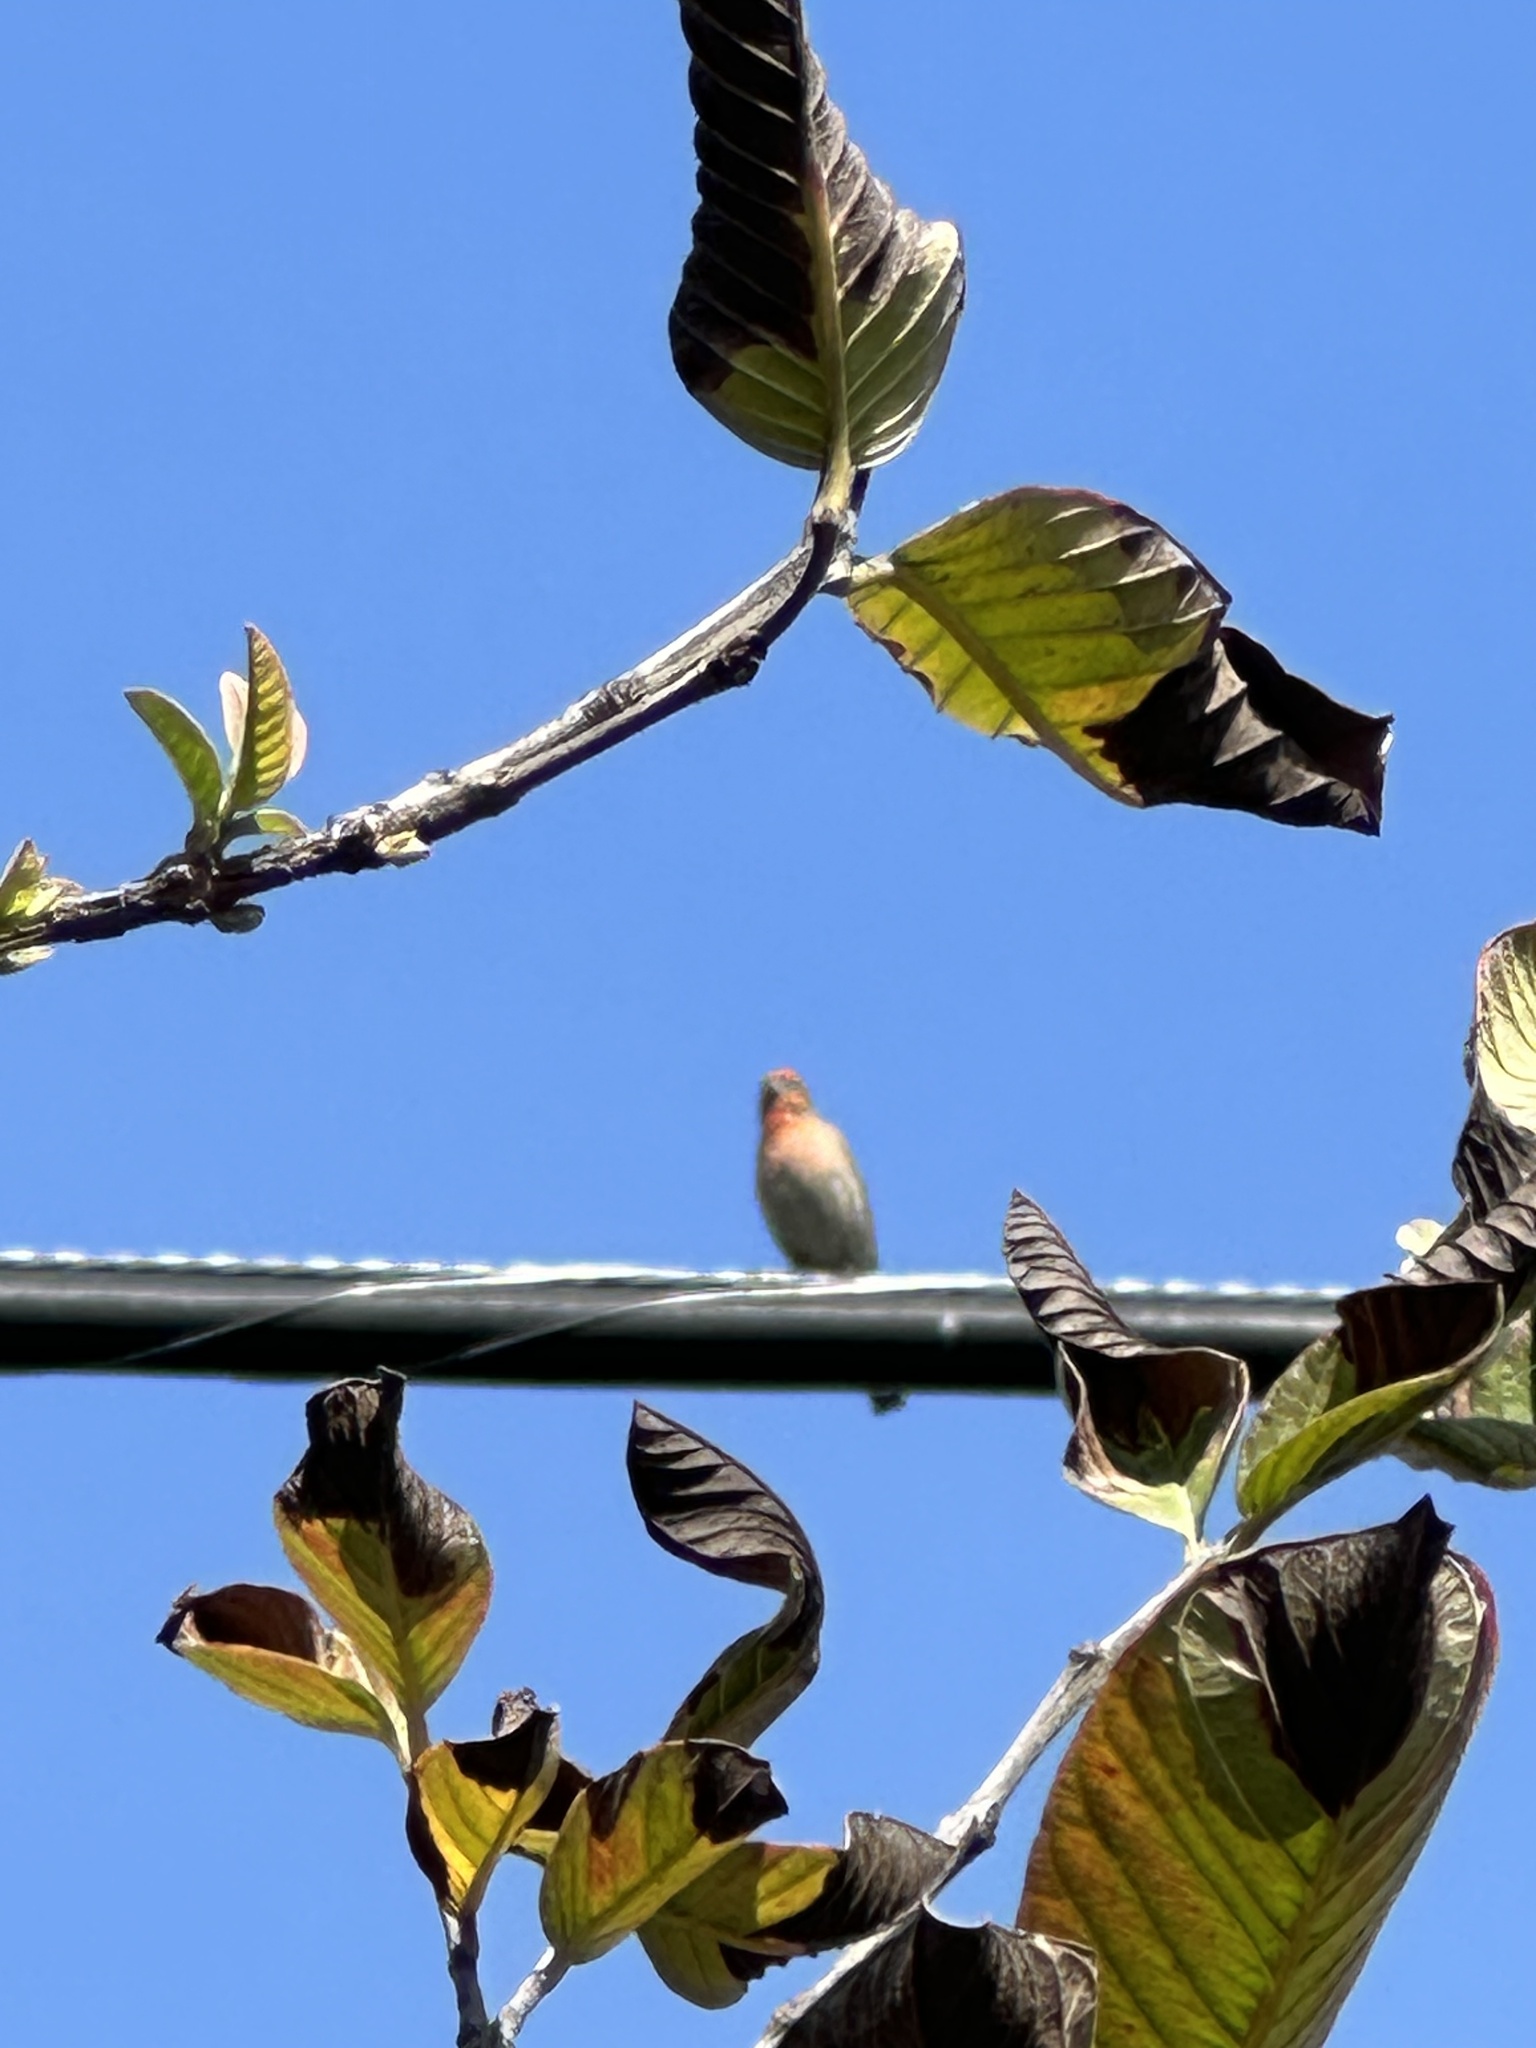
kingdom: Animalia
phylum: Chordata
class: Aves
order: Passeriformes
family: Fringillidae
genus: Haemorhous
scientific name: Haemorhous mexicanus
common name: House finch
